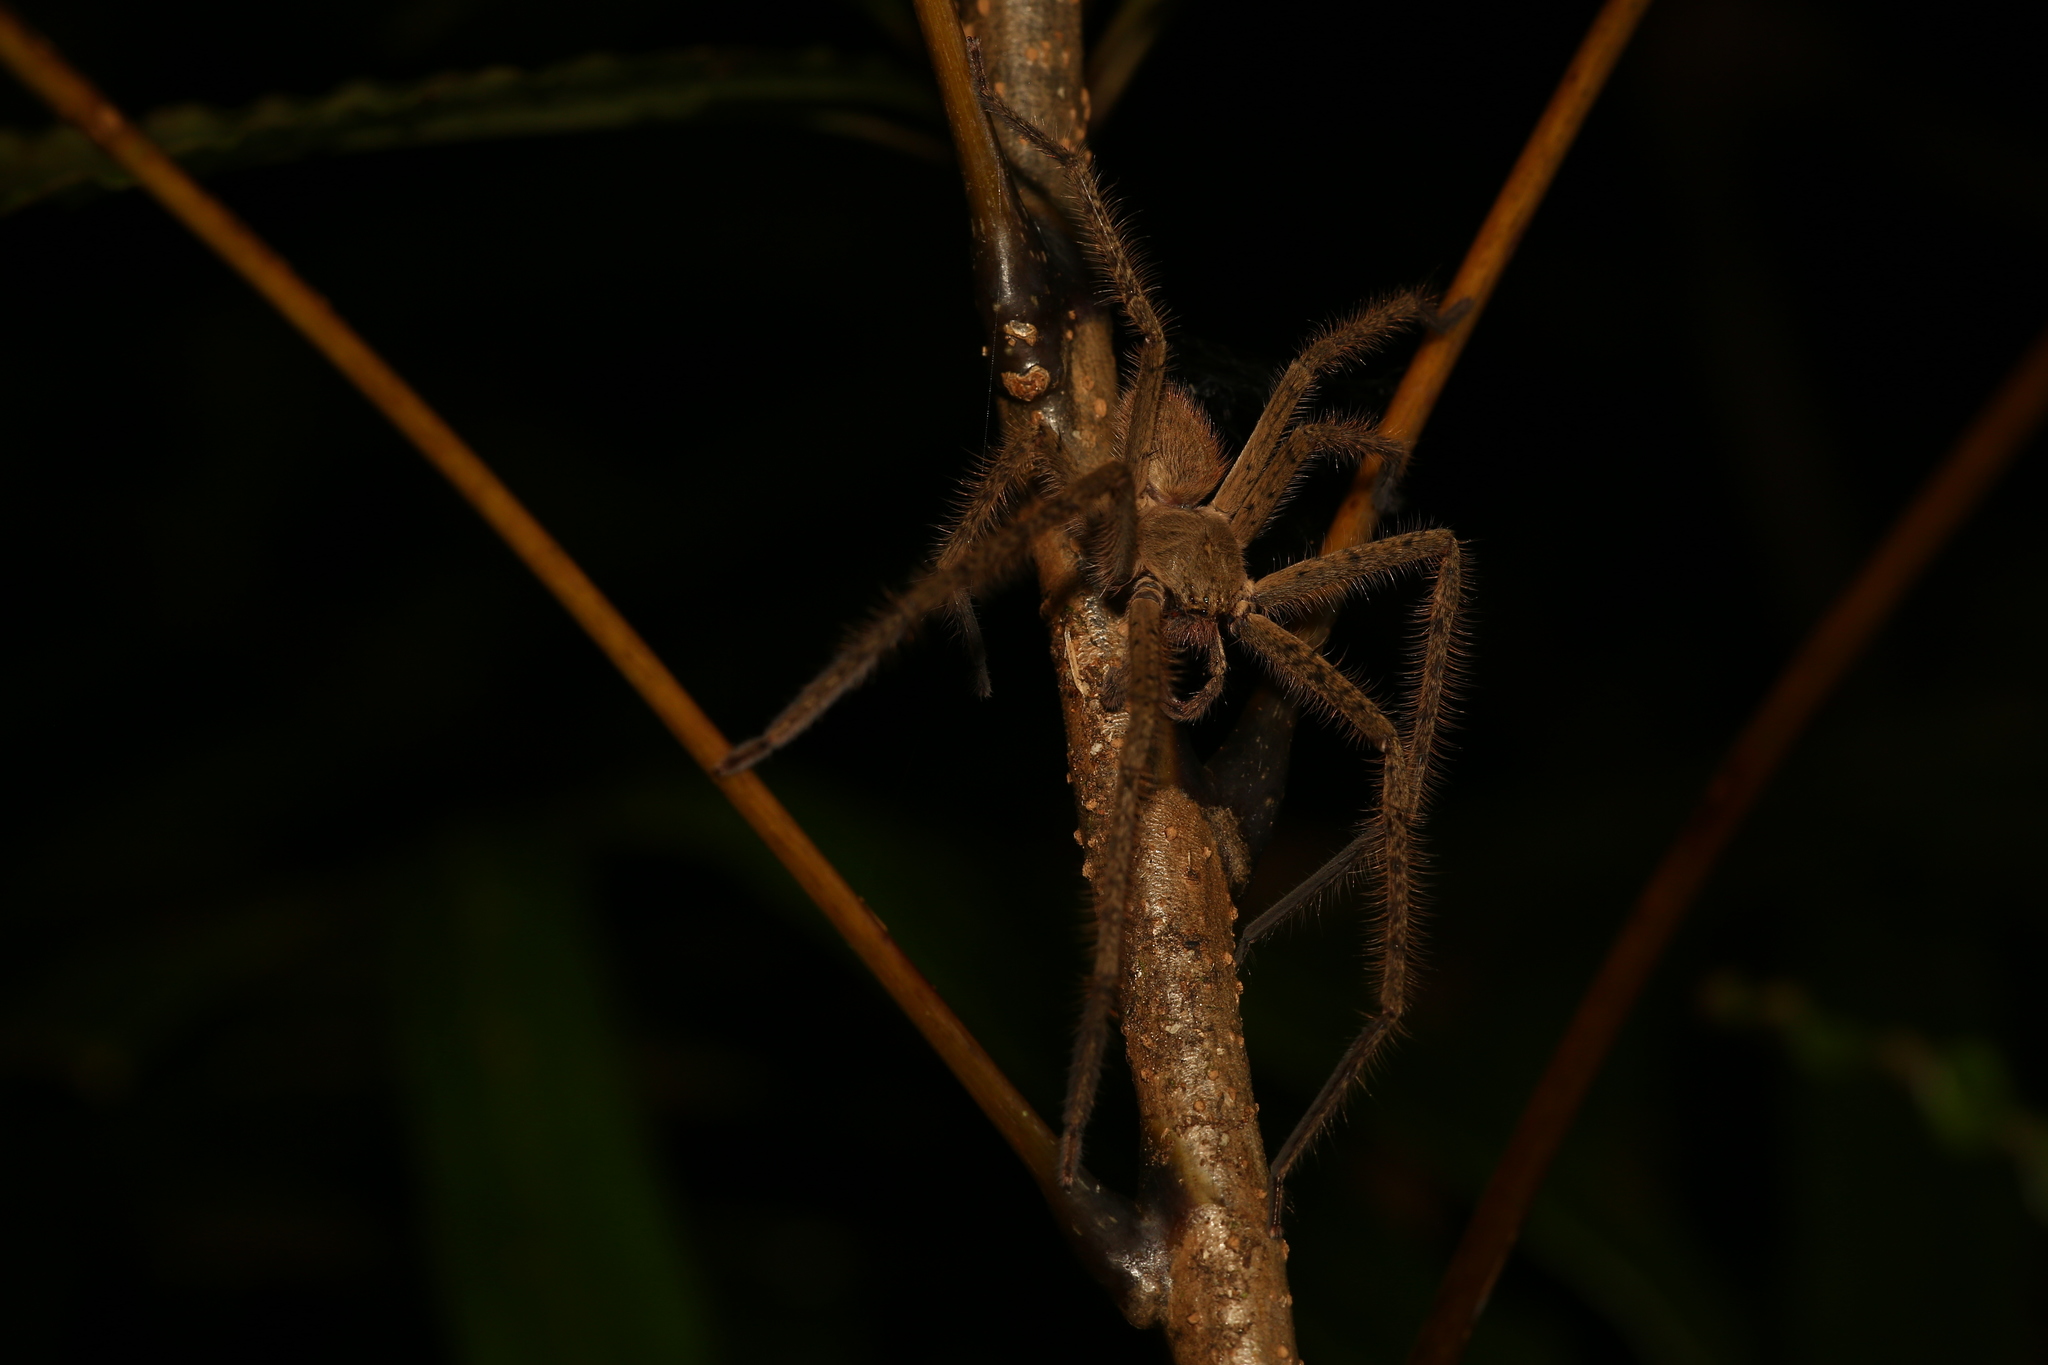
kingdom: Animalia
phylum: Arthropoda
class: Arachnida
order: Araneae
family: Sparassidae
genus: Palystes
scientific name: Palystes pinnotheres
